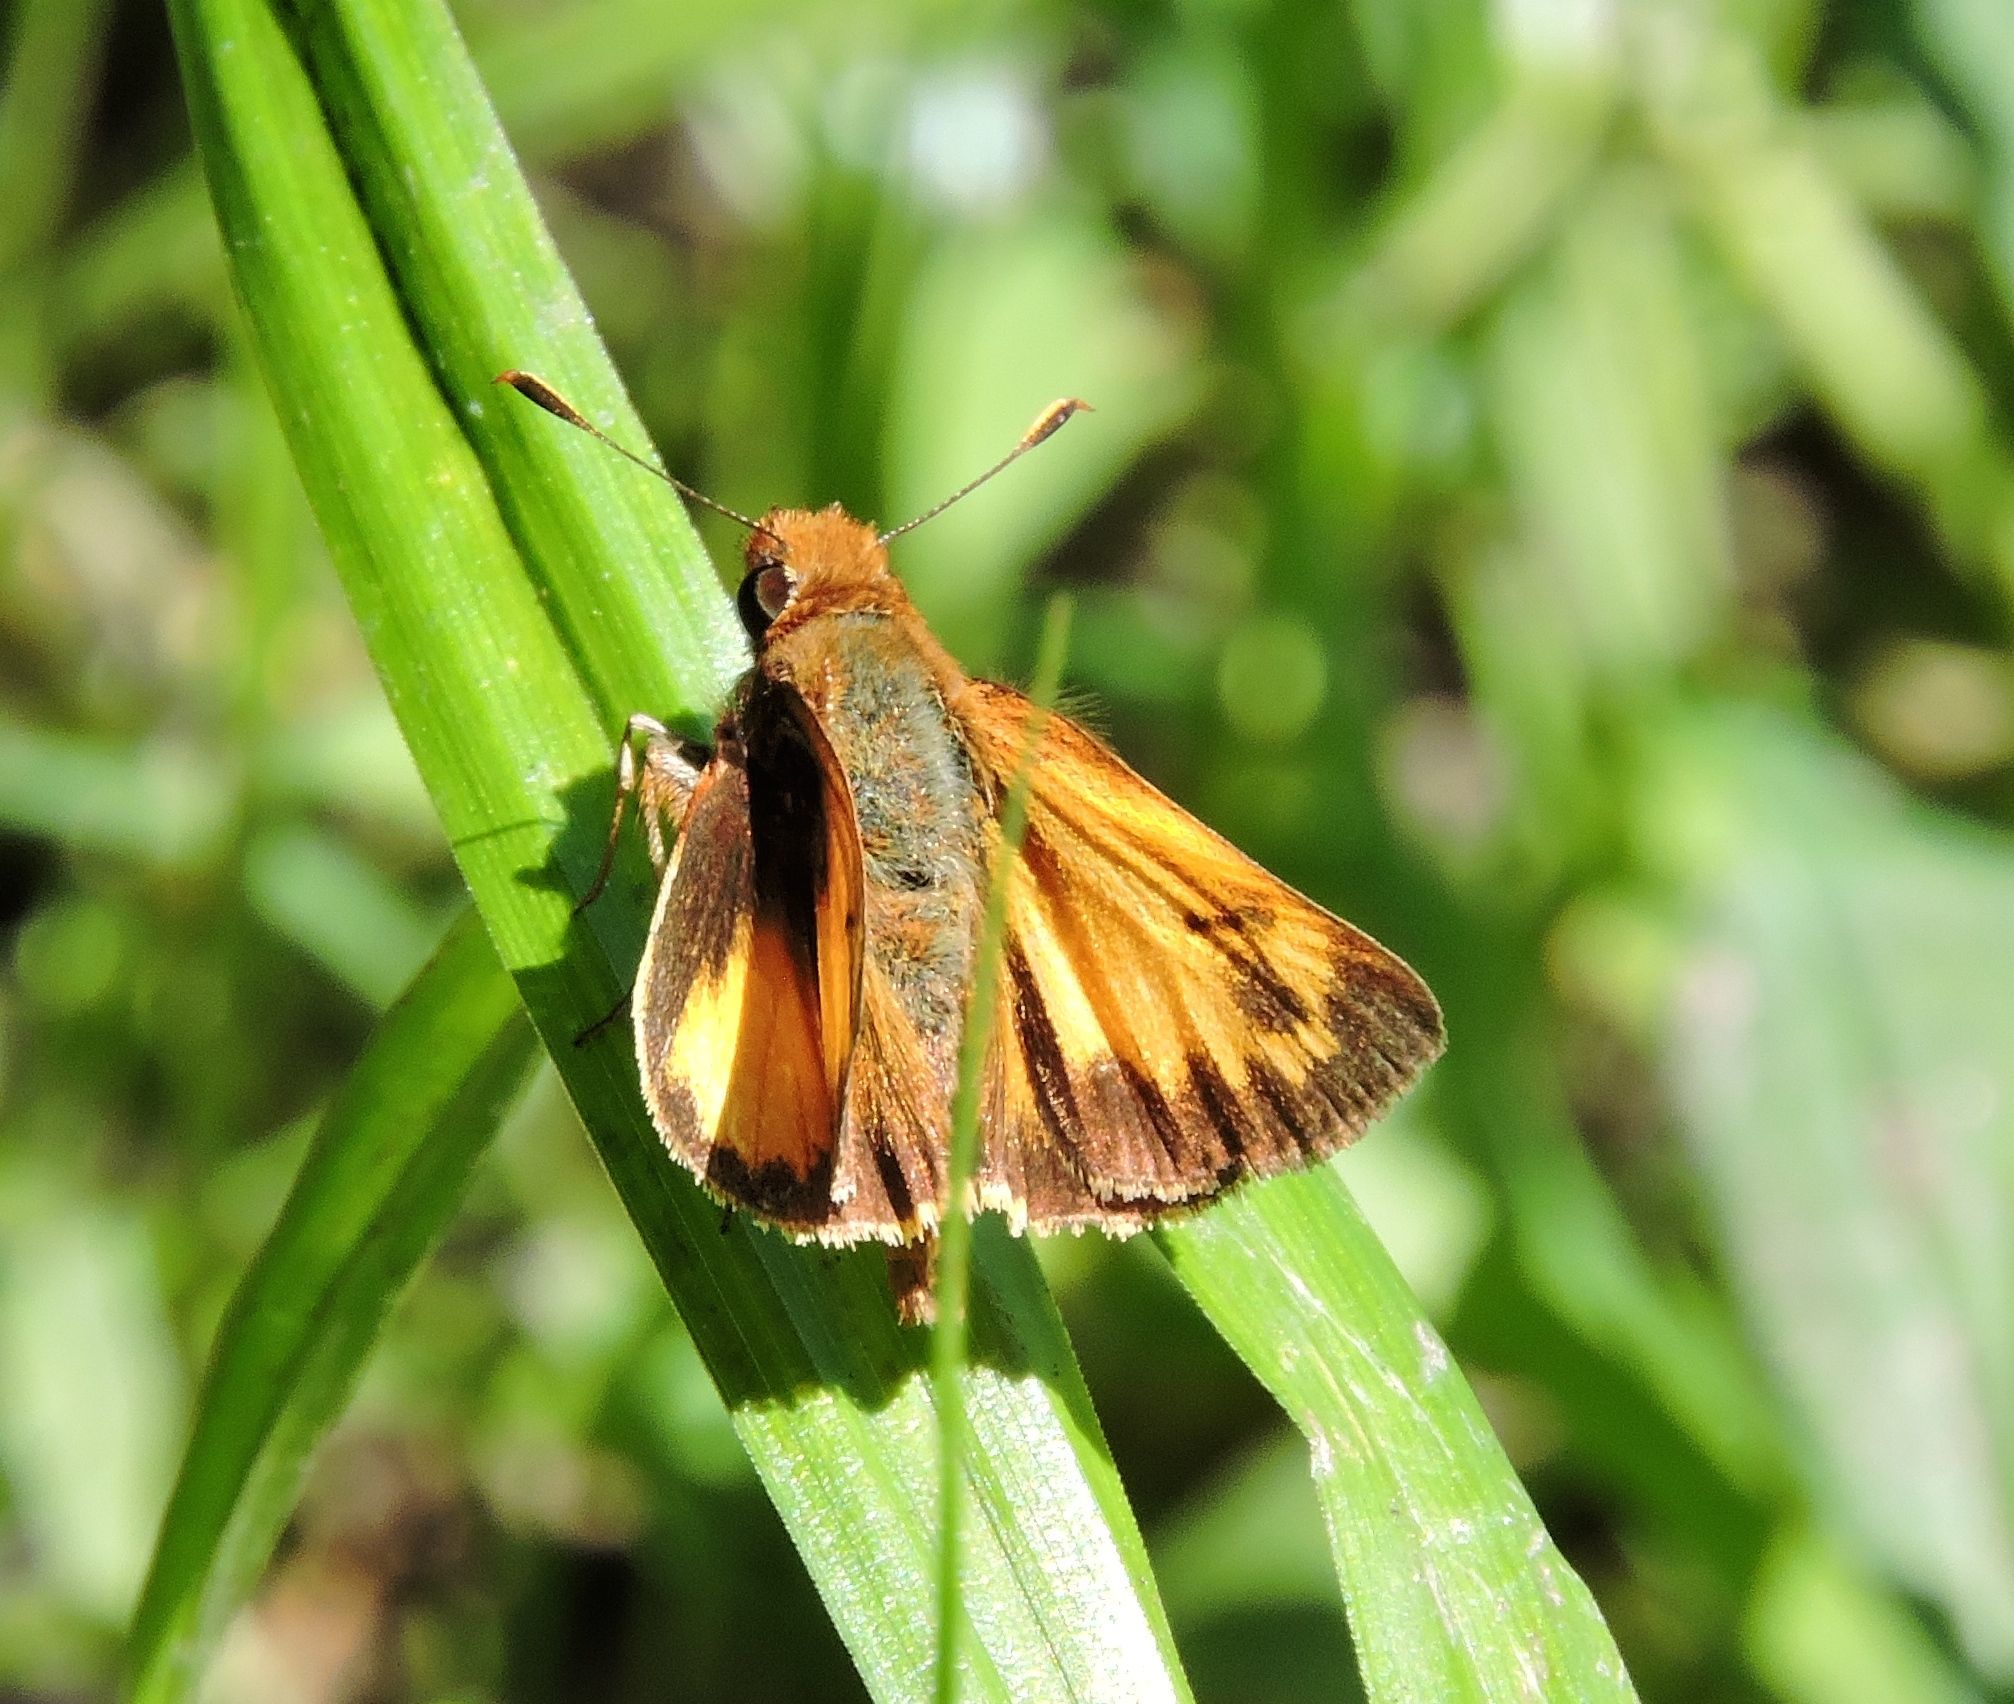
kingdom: Animalia
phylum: Arthropoda
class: Insecta
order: Lepidoptera
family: Hesperiidae
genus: Lon
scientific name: Lon zabulon
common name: Zabulon skipper
